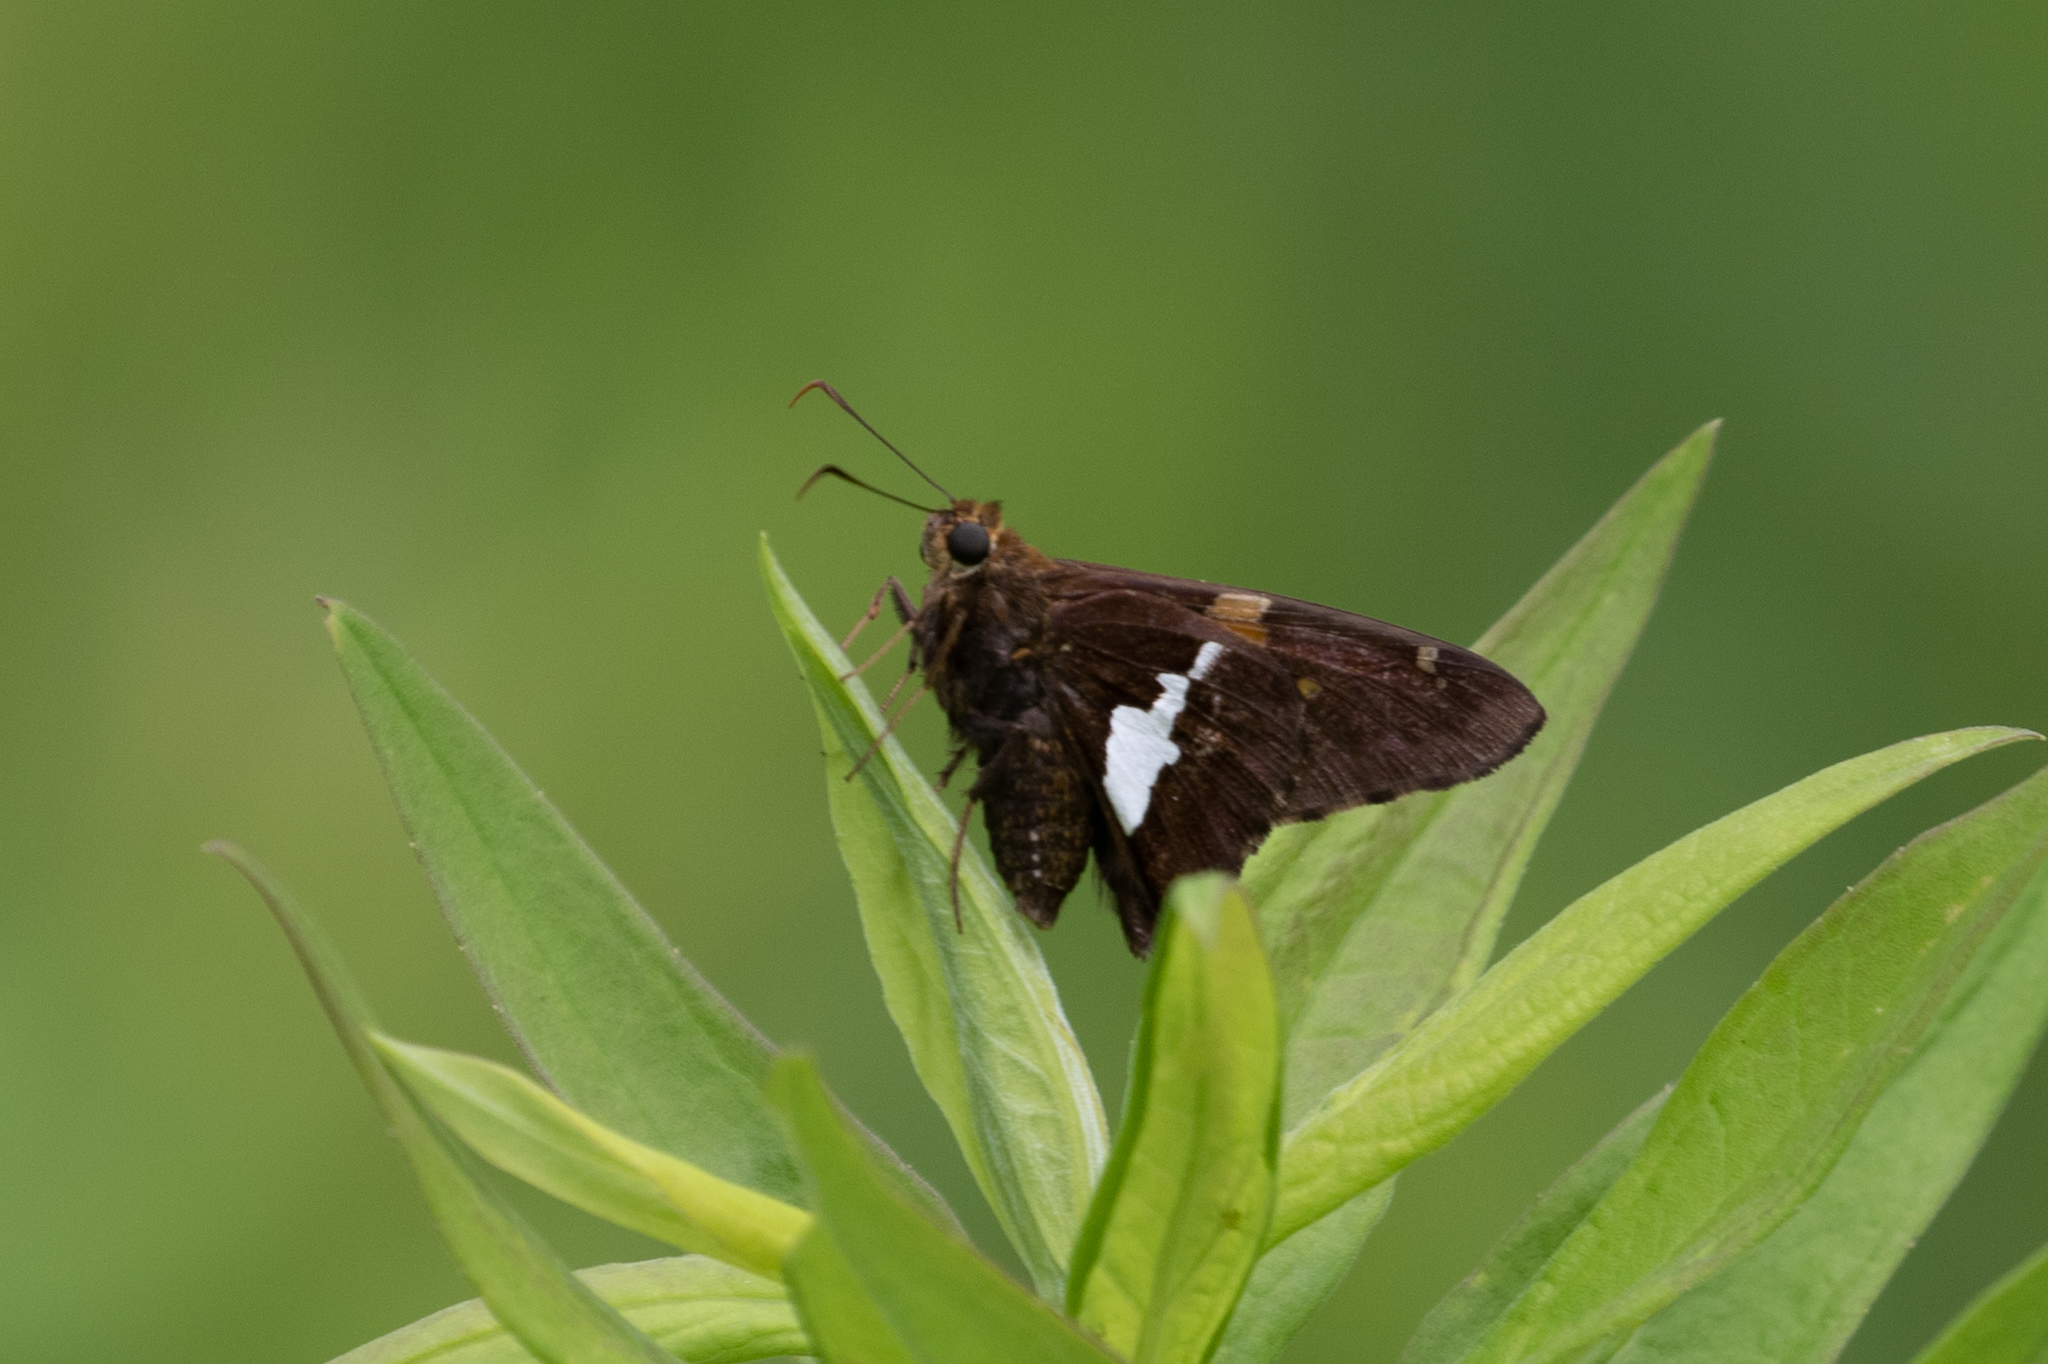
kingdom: Animalia
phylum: Arthropoda
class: Insecta
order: Lepidoptera
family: Hesperiidae
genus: Epargyreus
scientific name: Epargyreus clarus
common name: Silver-spotted skipper
